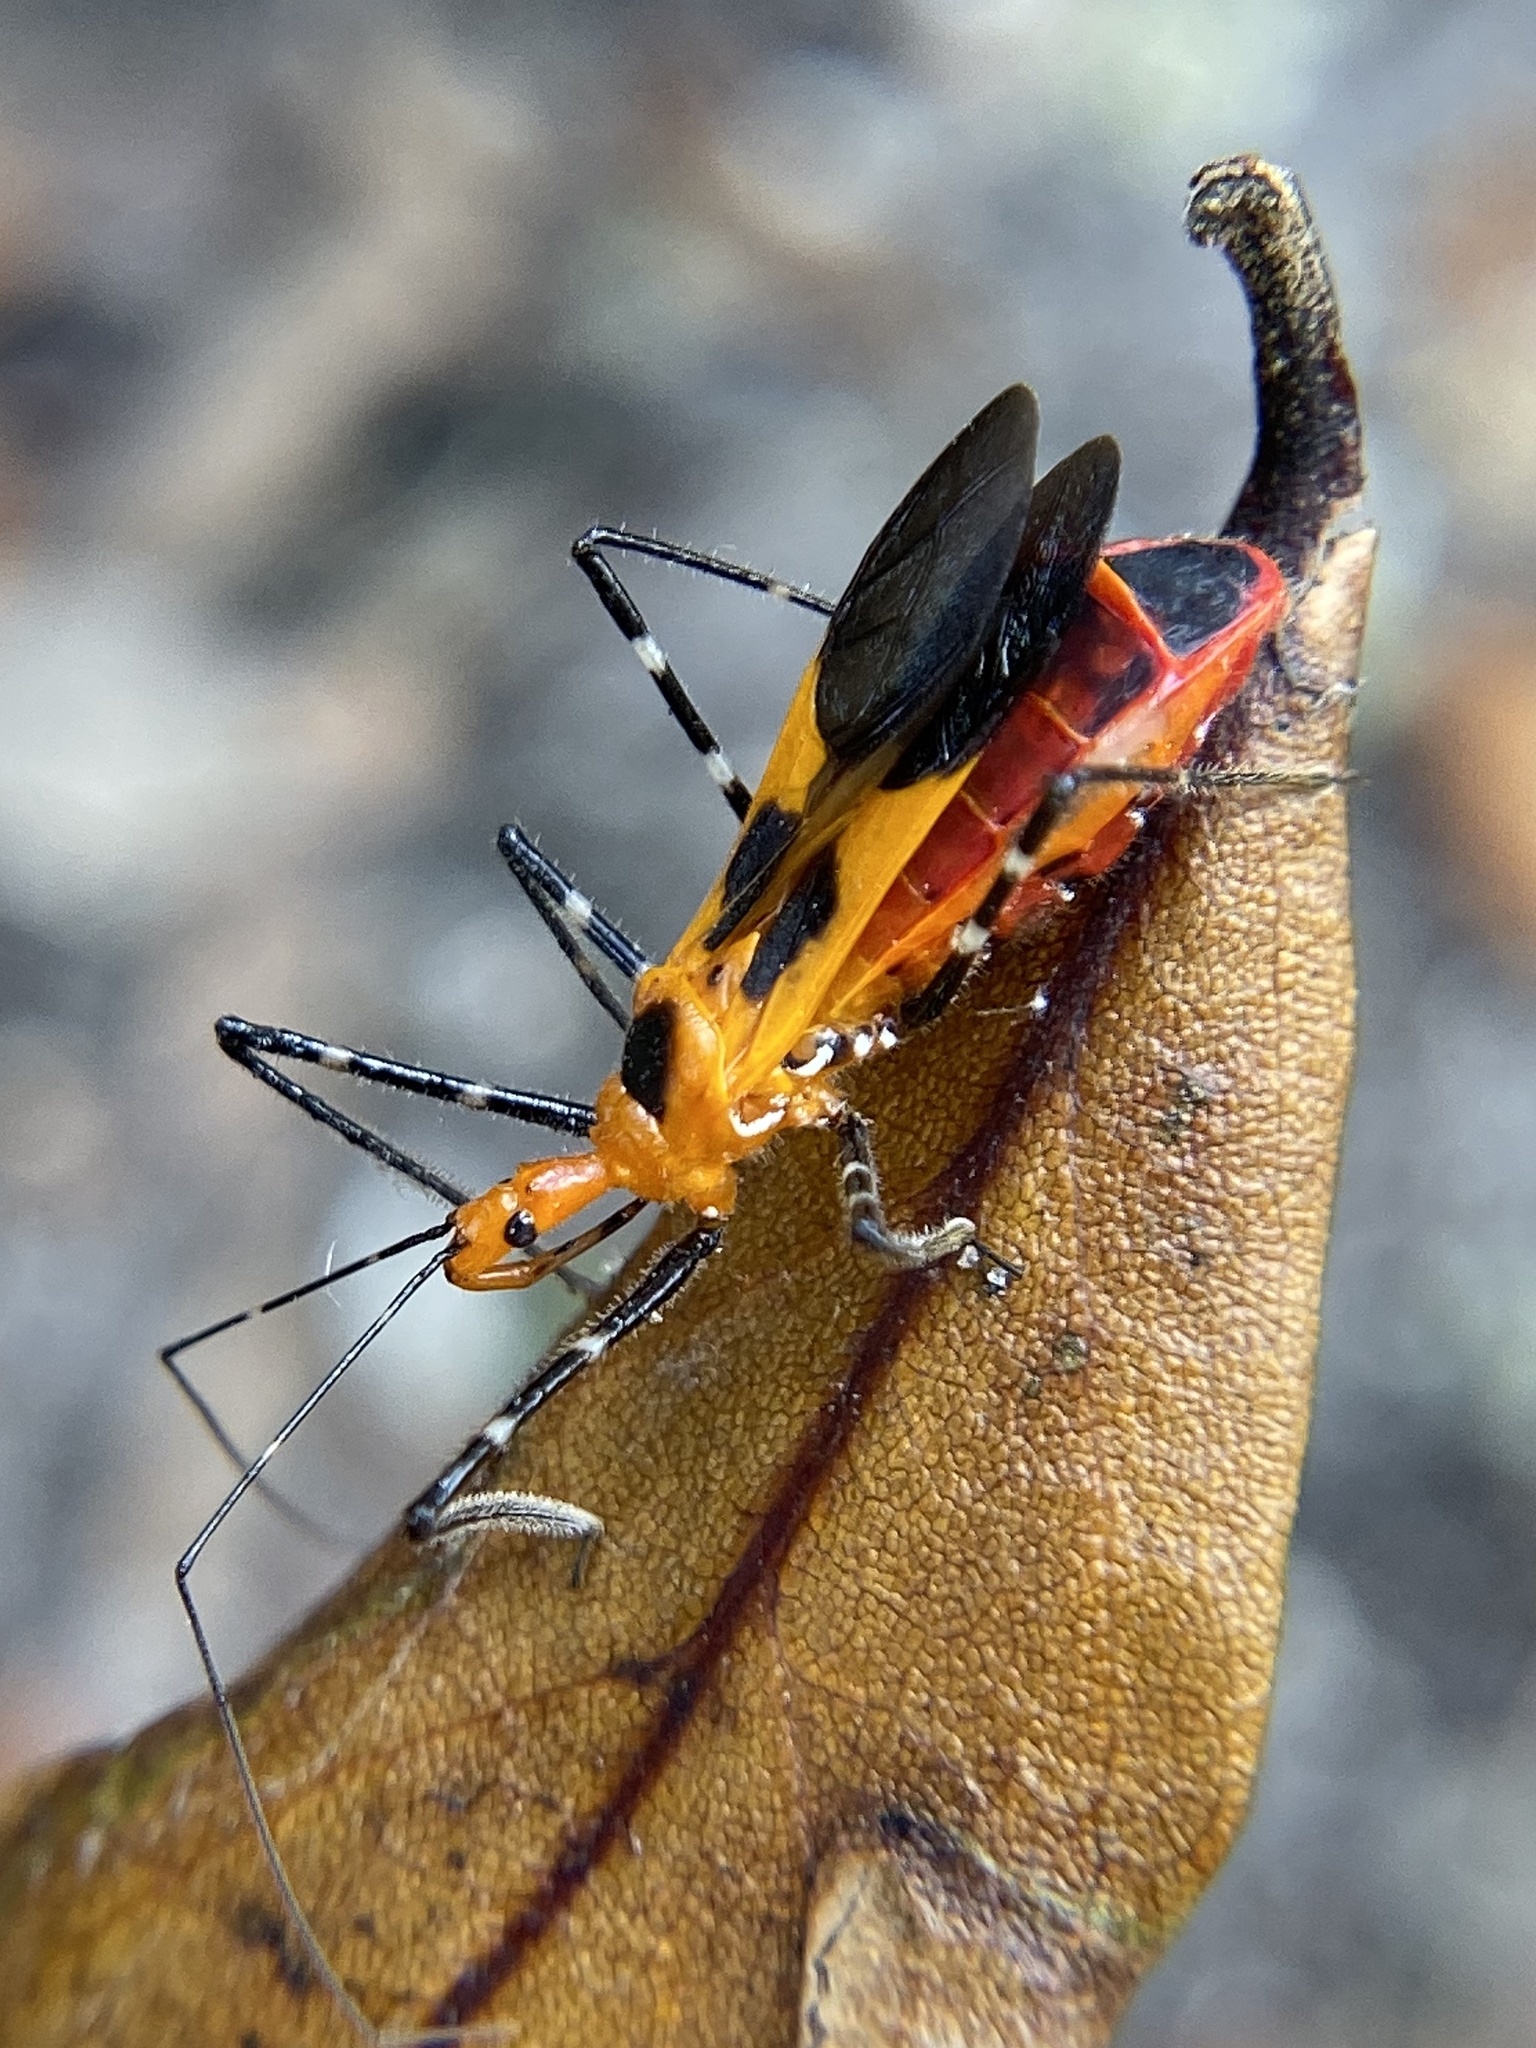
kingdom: Animalia
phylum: Arthropoda
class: Insecta
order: Hemiptera
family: Reduviidae
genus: Zelus
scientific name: Zelus longipes
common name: Milkweed assassin bug
